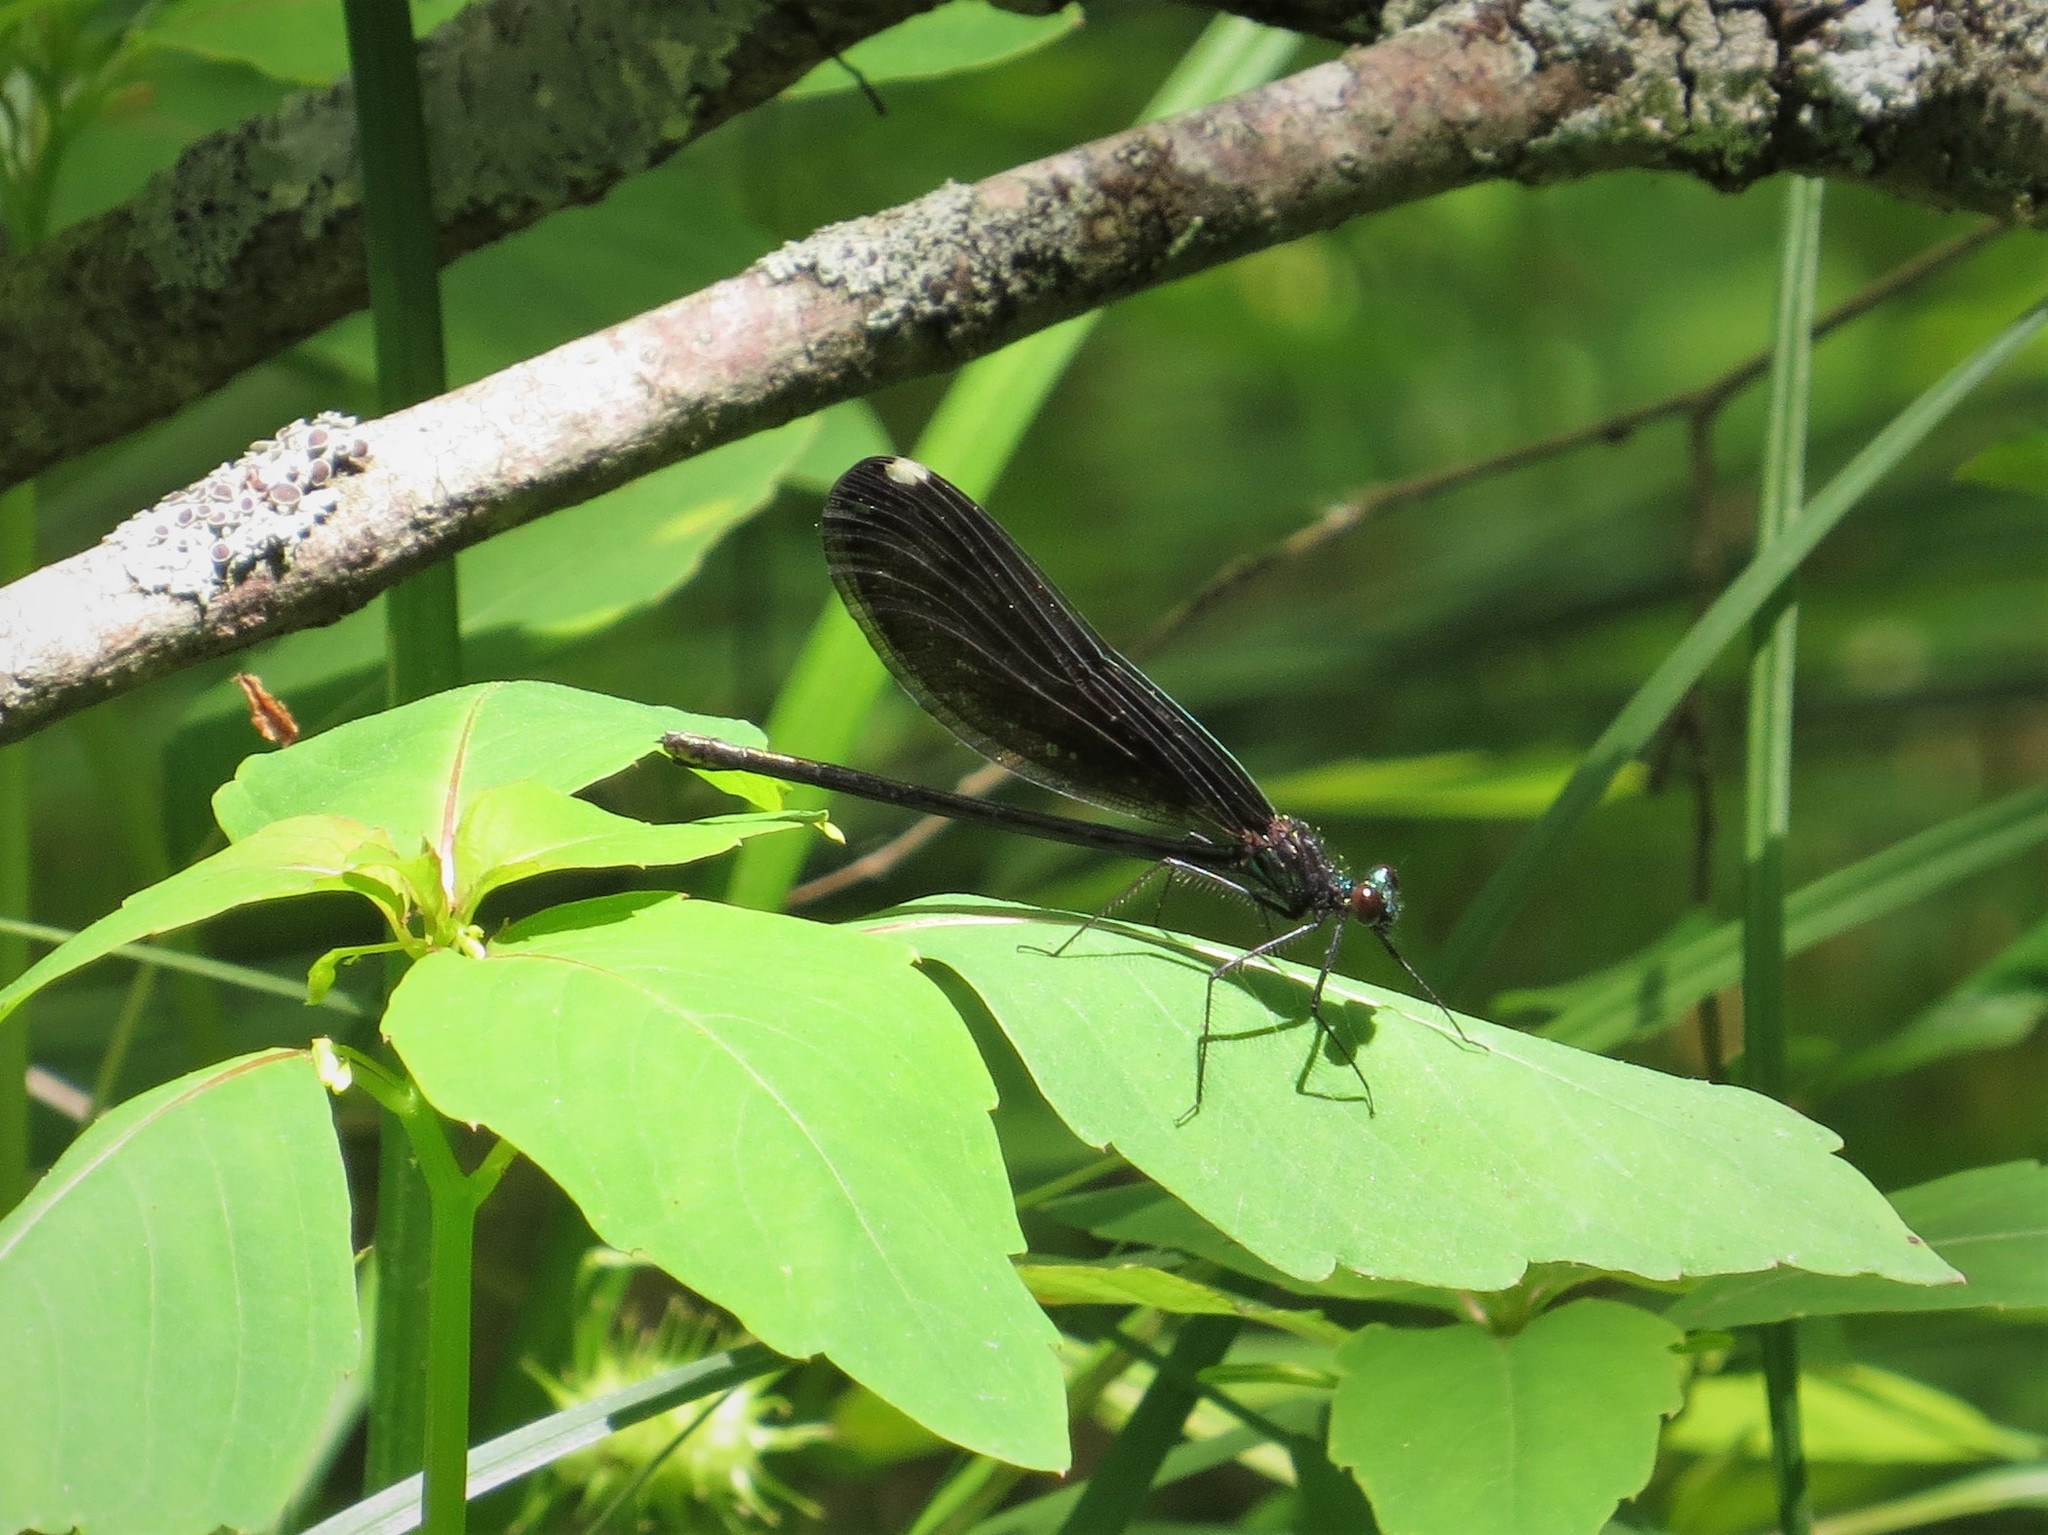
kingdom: Animalia
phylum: Arthropoda
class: Insecta
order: Odonata
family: Calopterygidae
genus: Calopteryx
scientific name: Calopteryx maculata
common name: Ebony jewelwing
